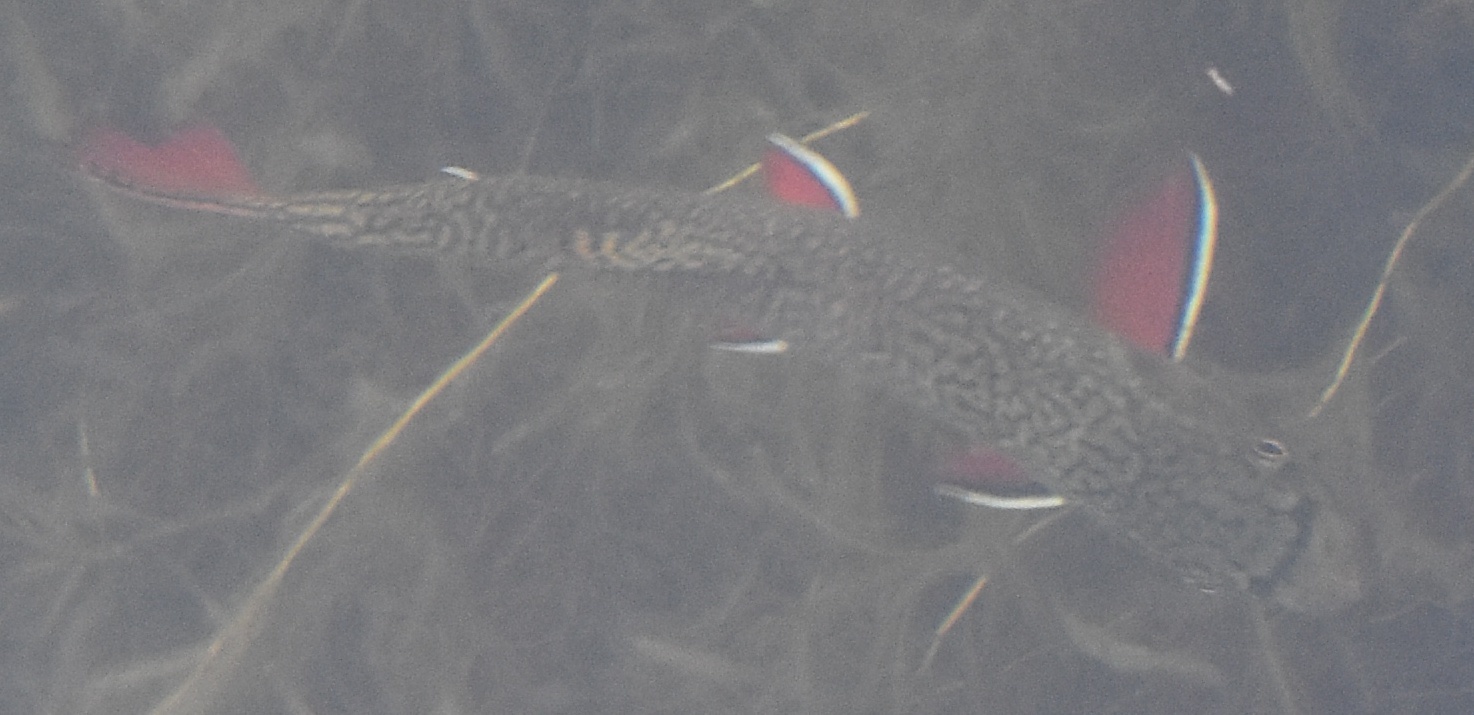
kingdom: Animalia
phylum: Chordata
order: Salmoniformes
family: Salmonidae
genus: Salvelinus
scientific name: Salvelinus fontinalis
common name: Brook trout
